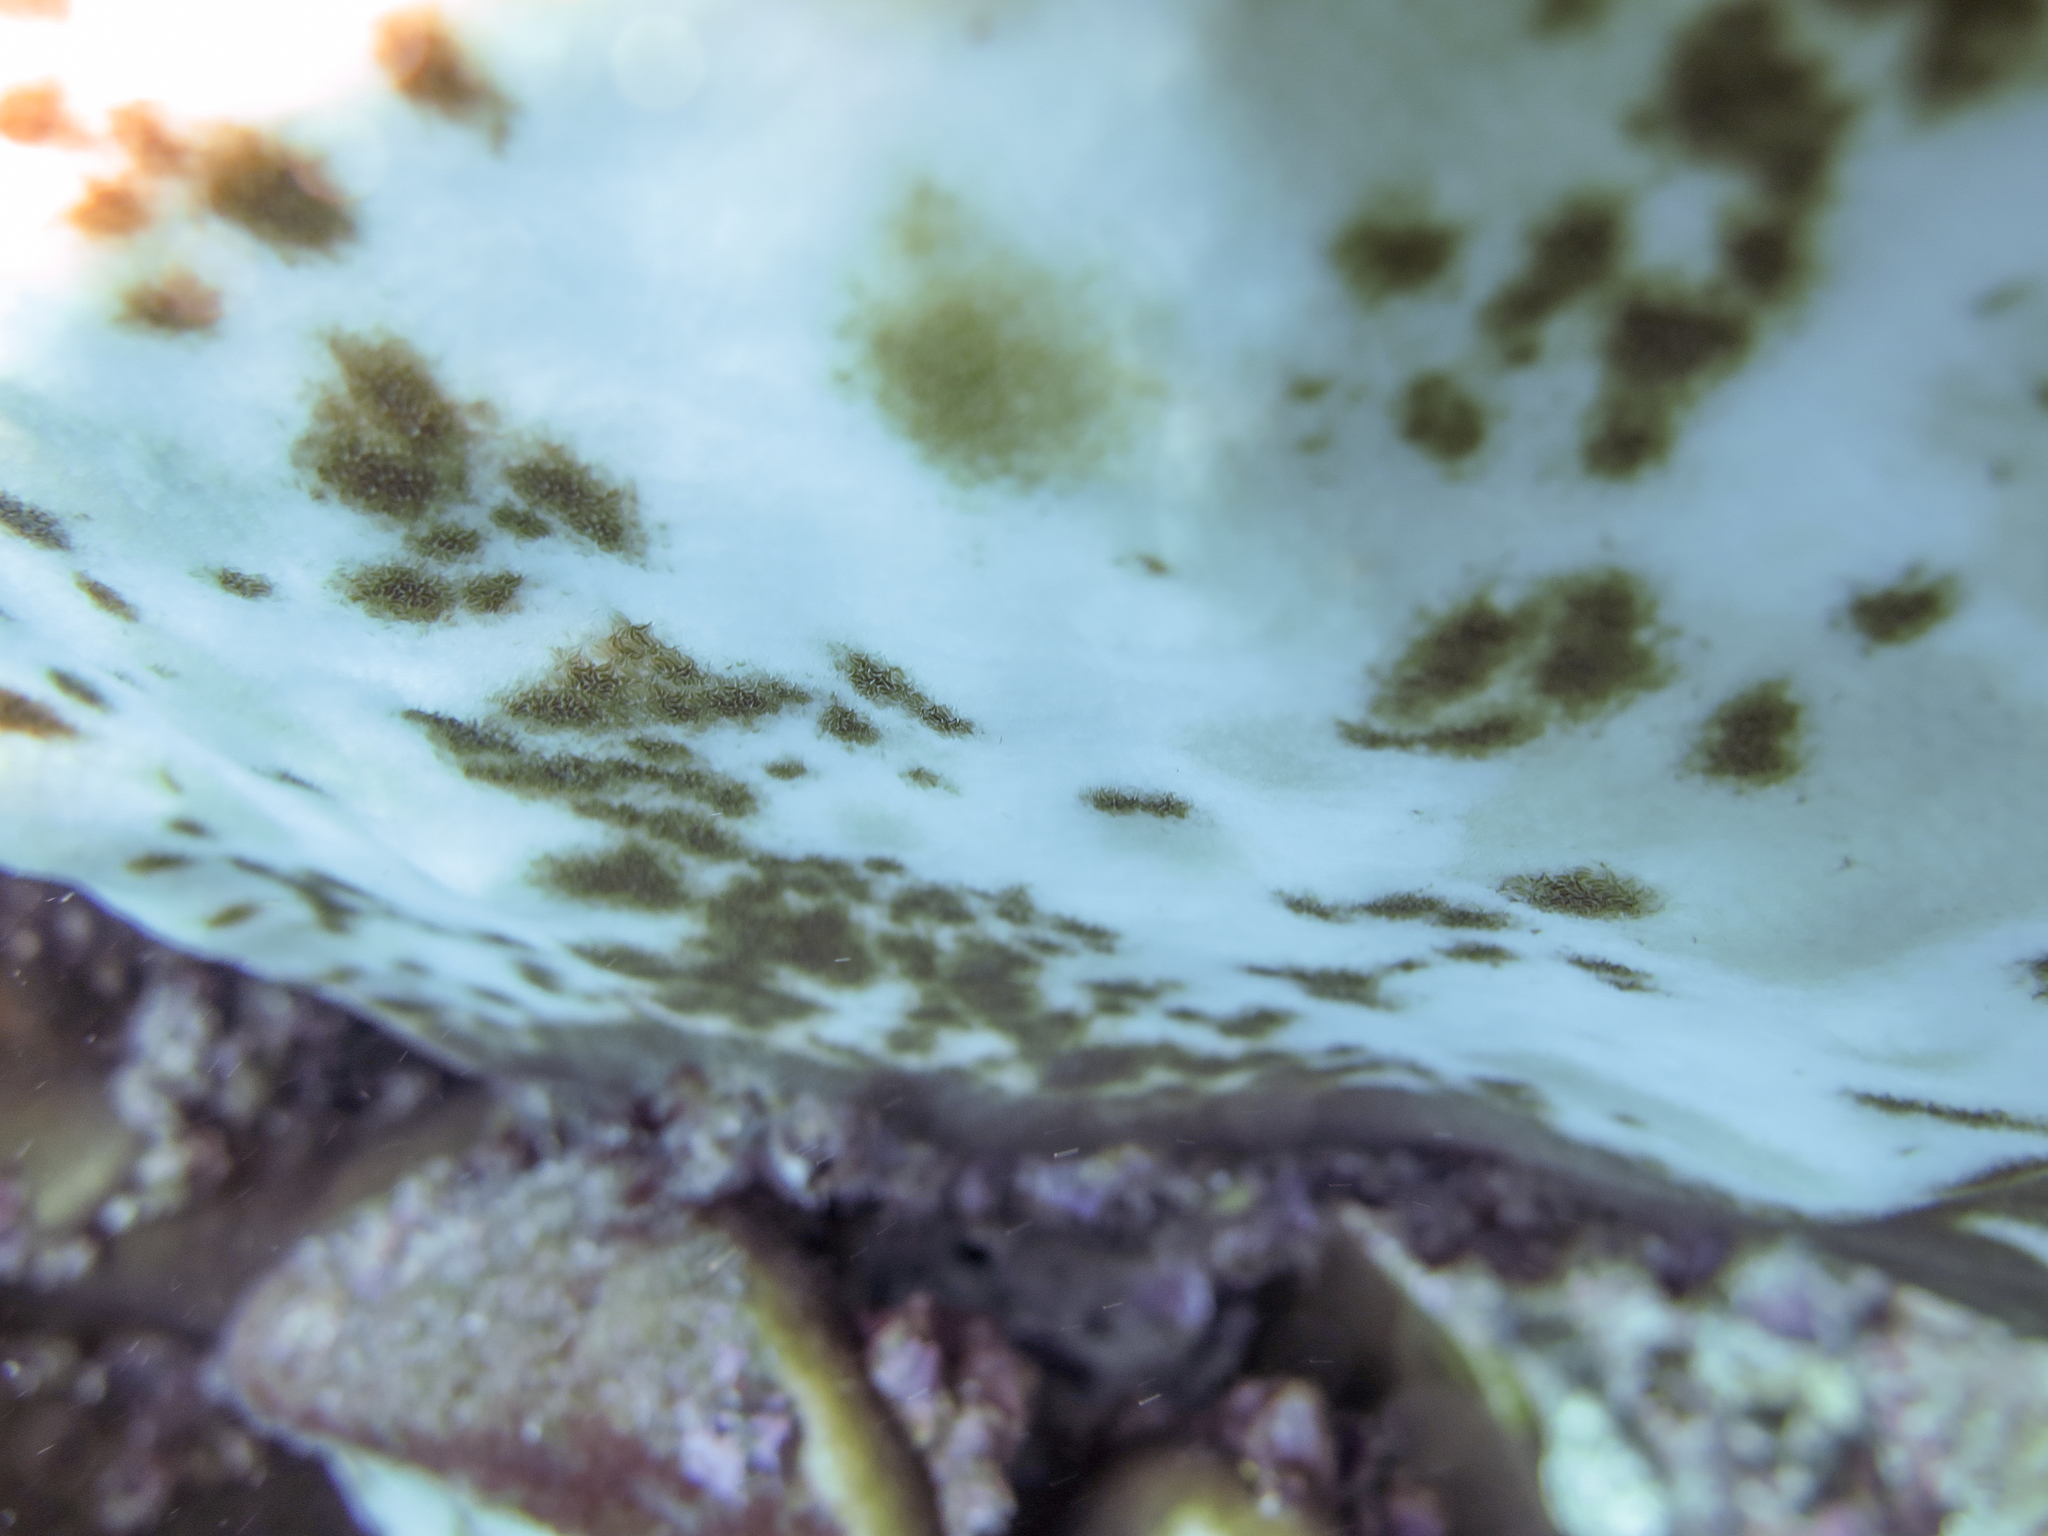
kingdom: Animalia
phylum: Cnidaria
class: Anthozoa
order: Scleractinia
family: Agariciidae
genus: Pavona
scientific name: Pavona duerdeni
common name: Leaf coral
